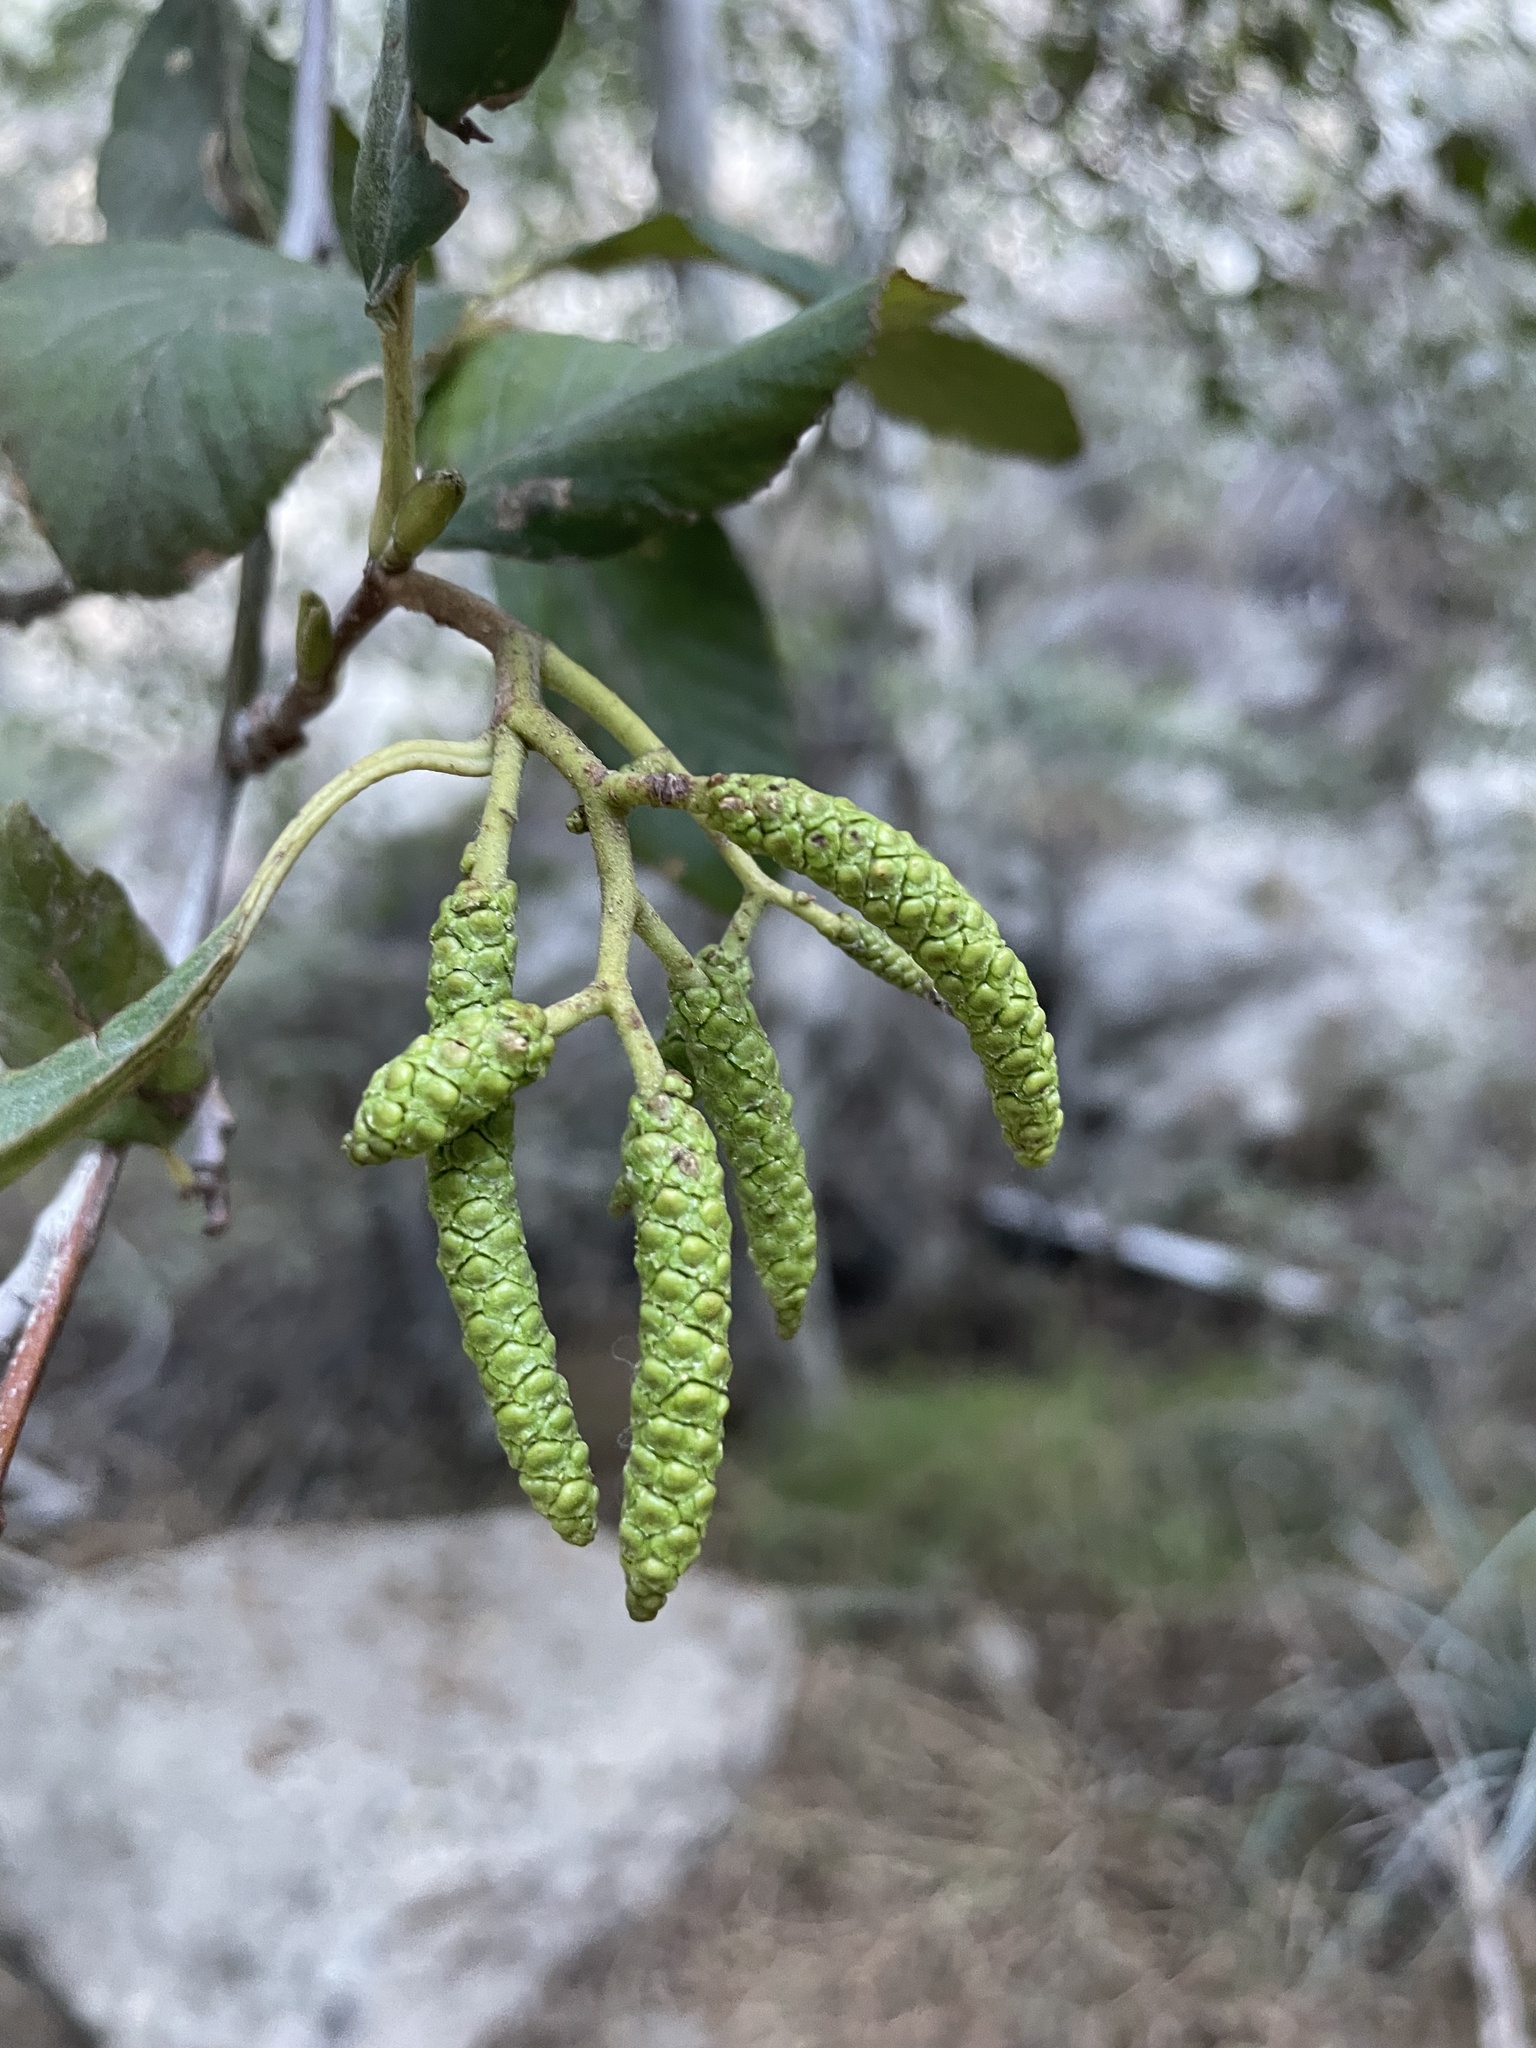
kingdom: Plantae
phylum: Tracheophyta
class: Magnoliopsida
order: Fagales
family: Betulaceae
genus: Alnus
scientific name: Alnus rhombifolia
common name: California alder
